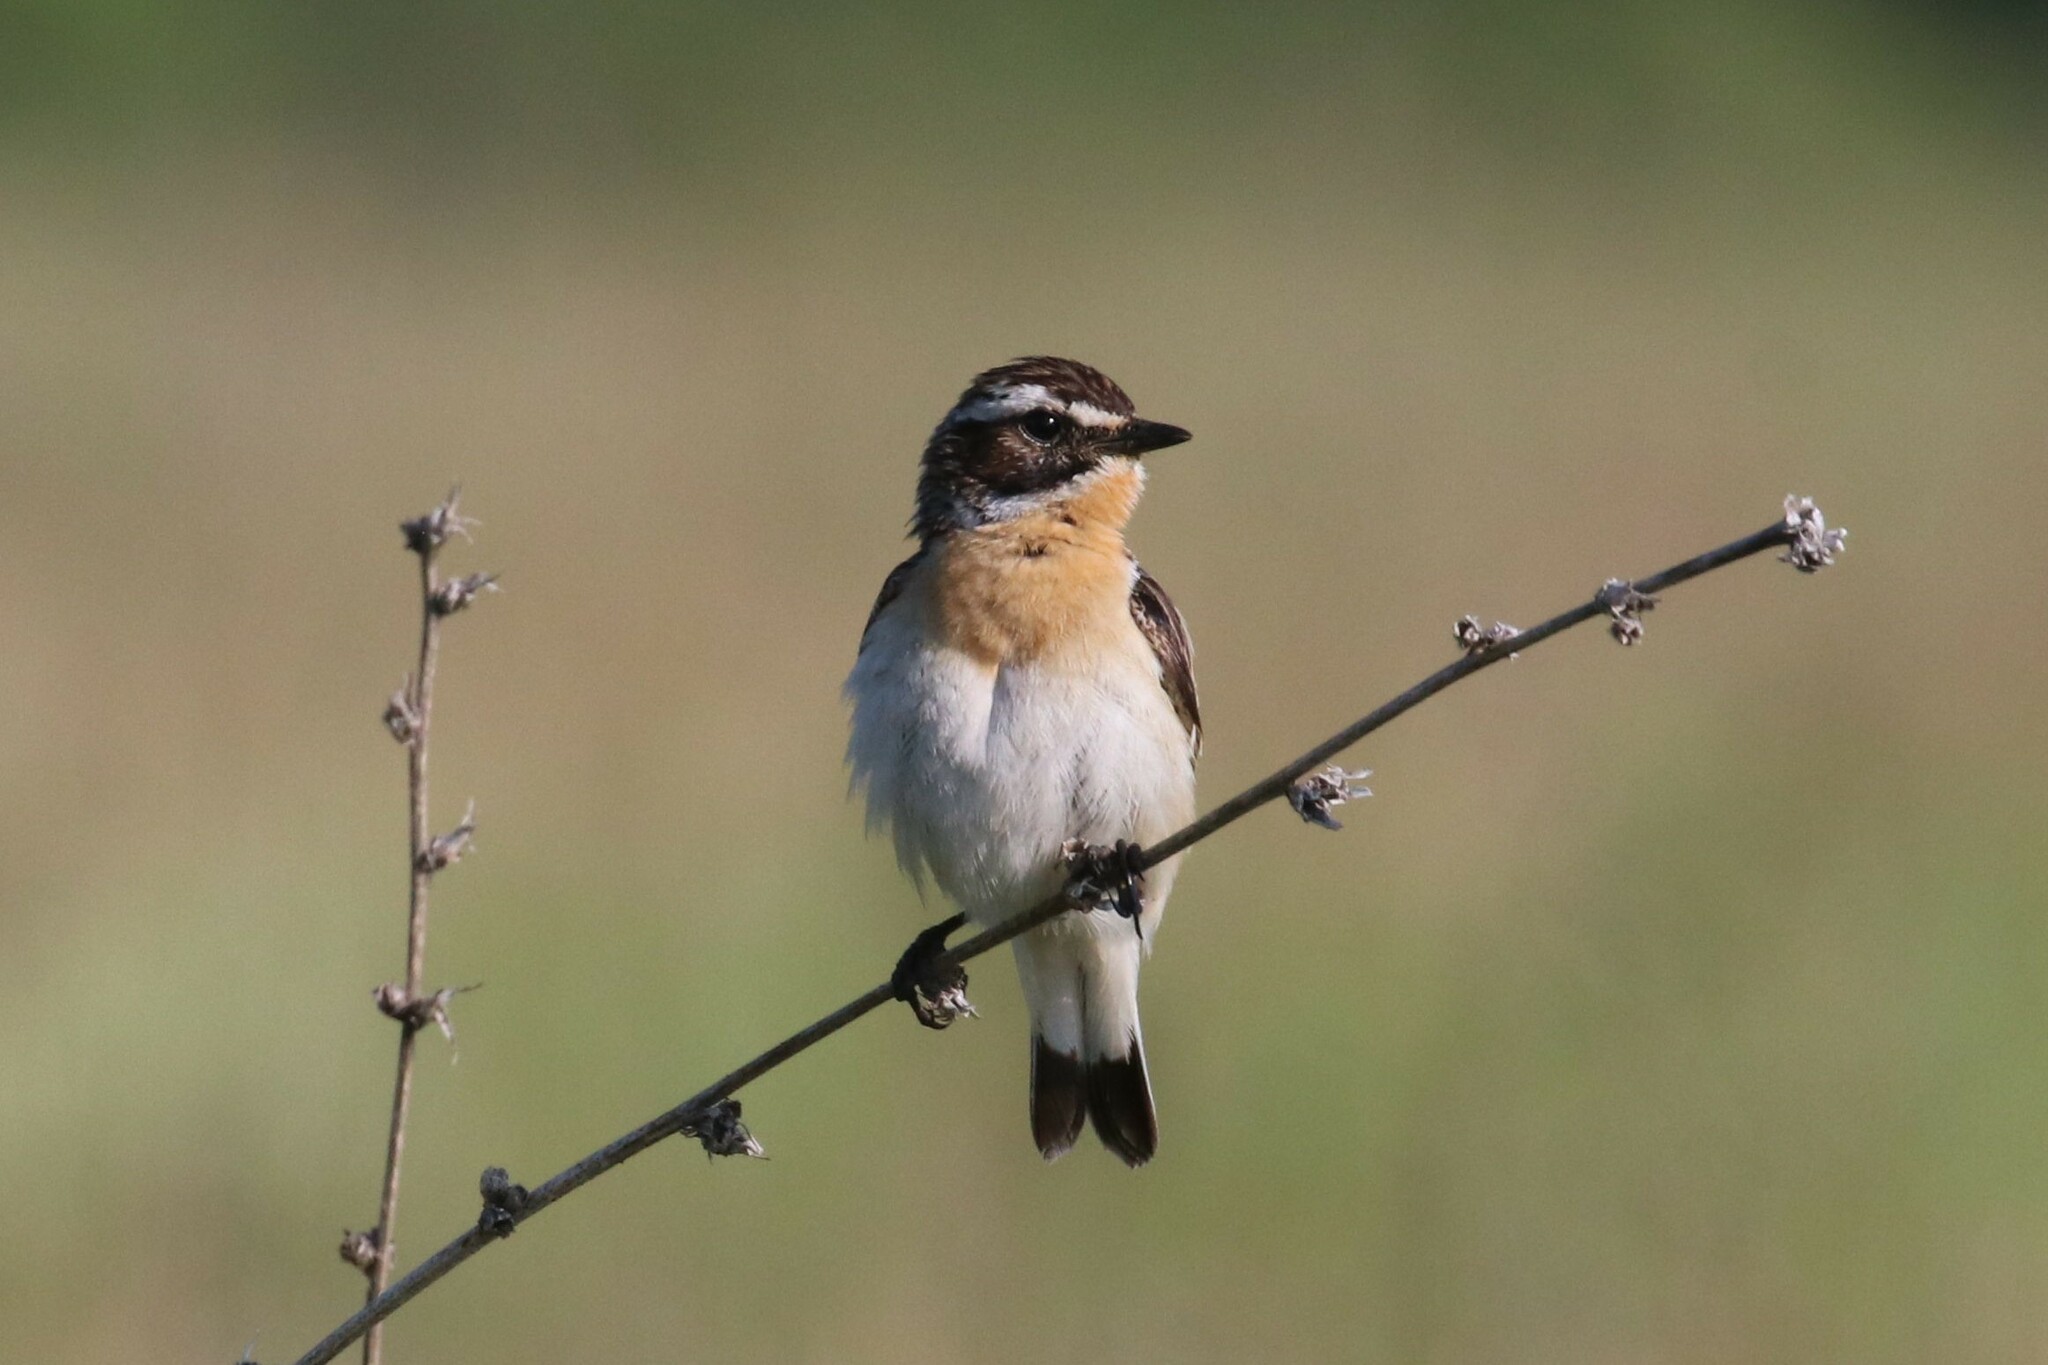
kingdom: Animalia
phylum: Chordata
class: Aves
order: Passeriformes
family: Muscicapidae
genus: Saxicola
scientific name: Saxicola rubetra
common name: Whinchat
